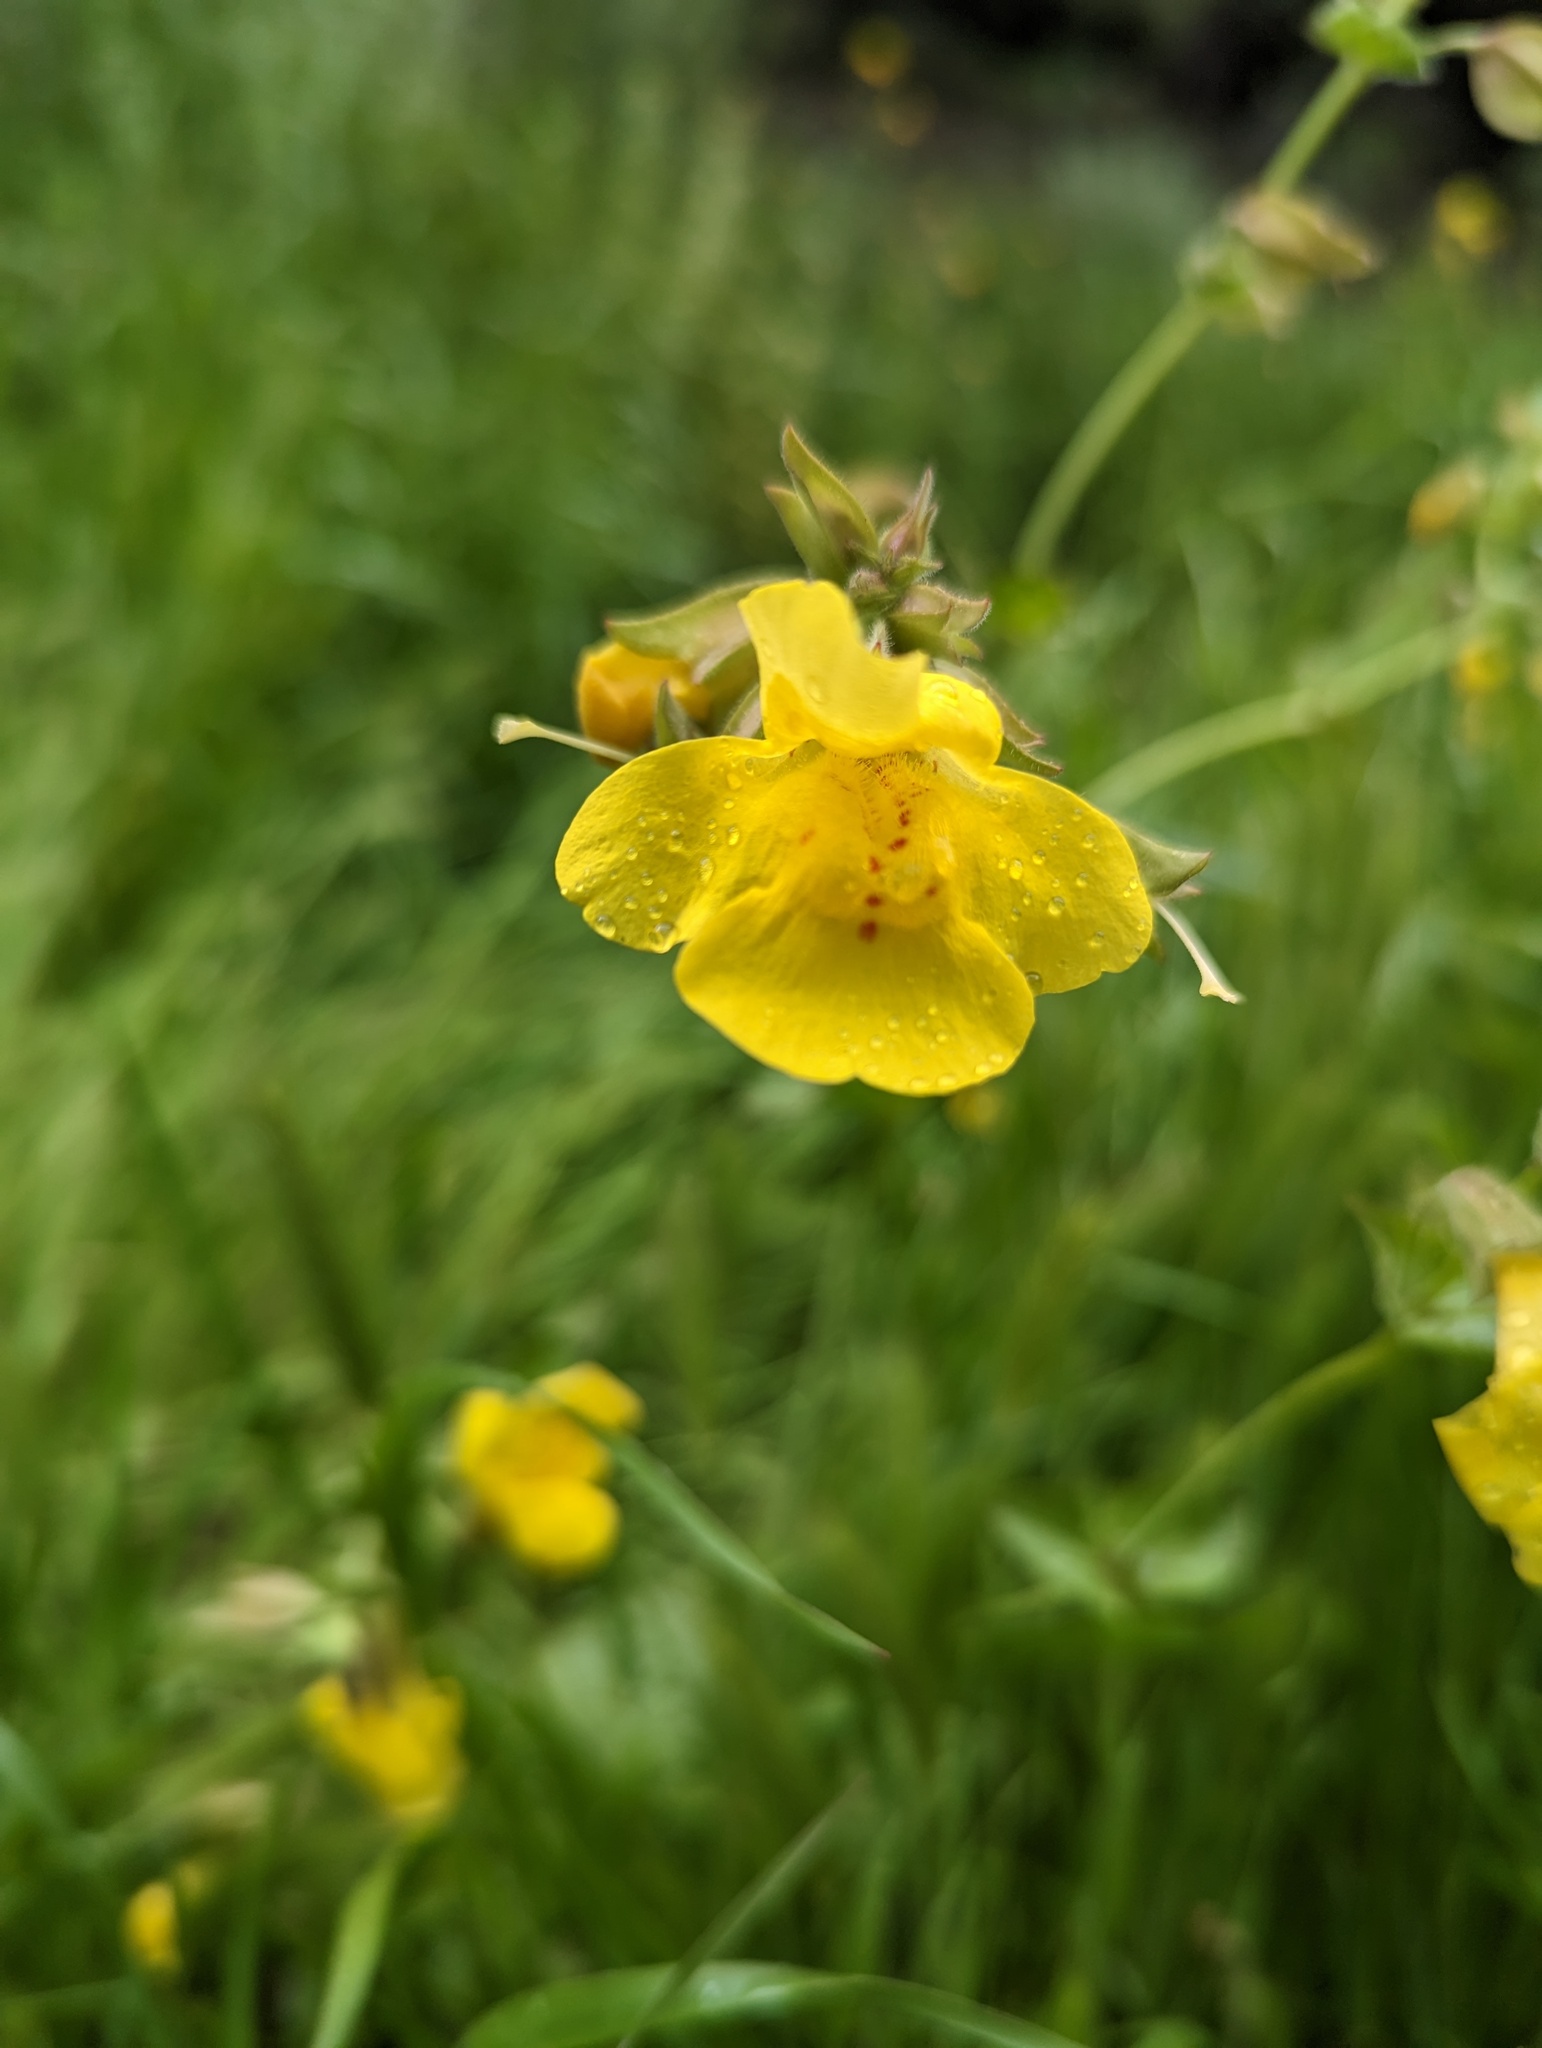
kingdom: Plantae
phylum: Tracheophyta
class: Magnoliopsida
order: Lamiales
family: Phrymaceae
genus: Erythranthe
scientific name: Erythranthe guttata
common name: Monkeyflower
